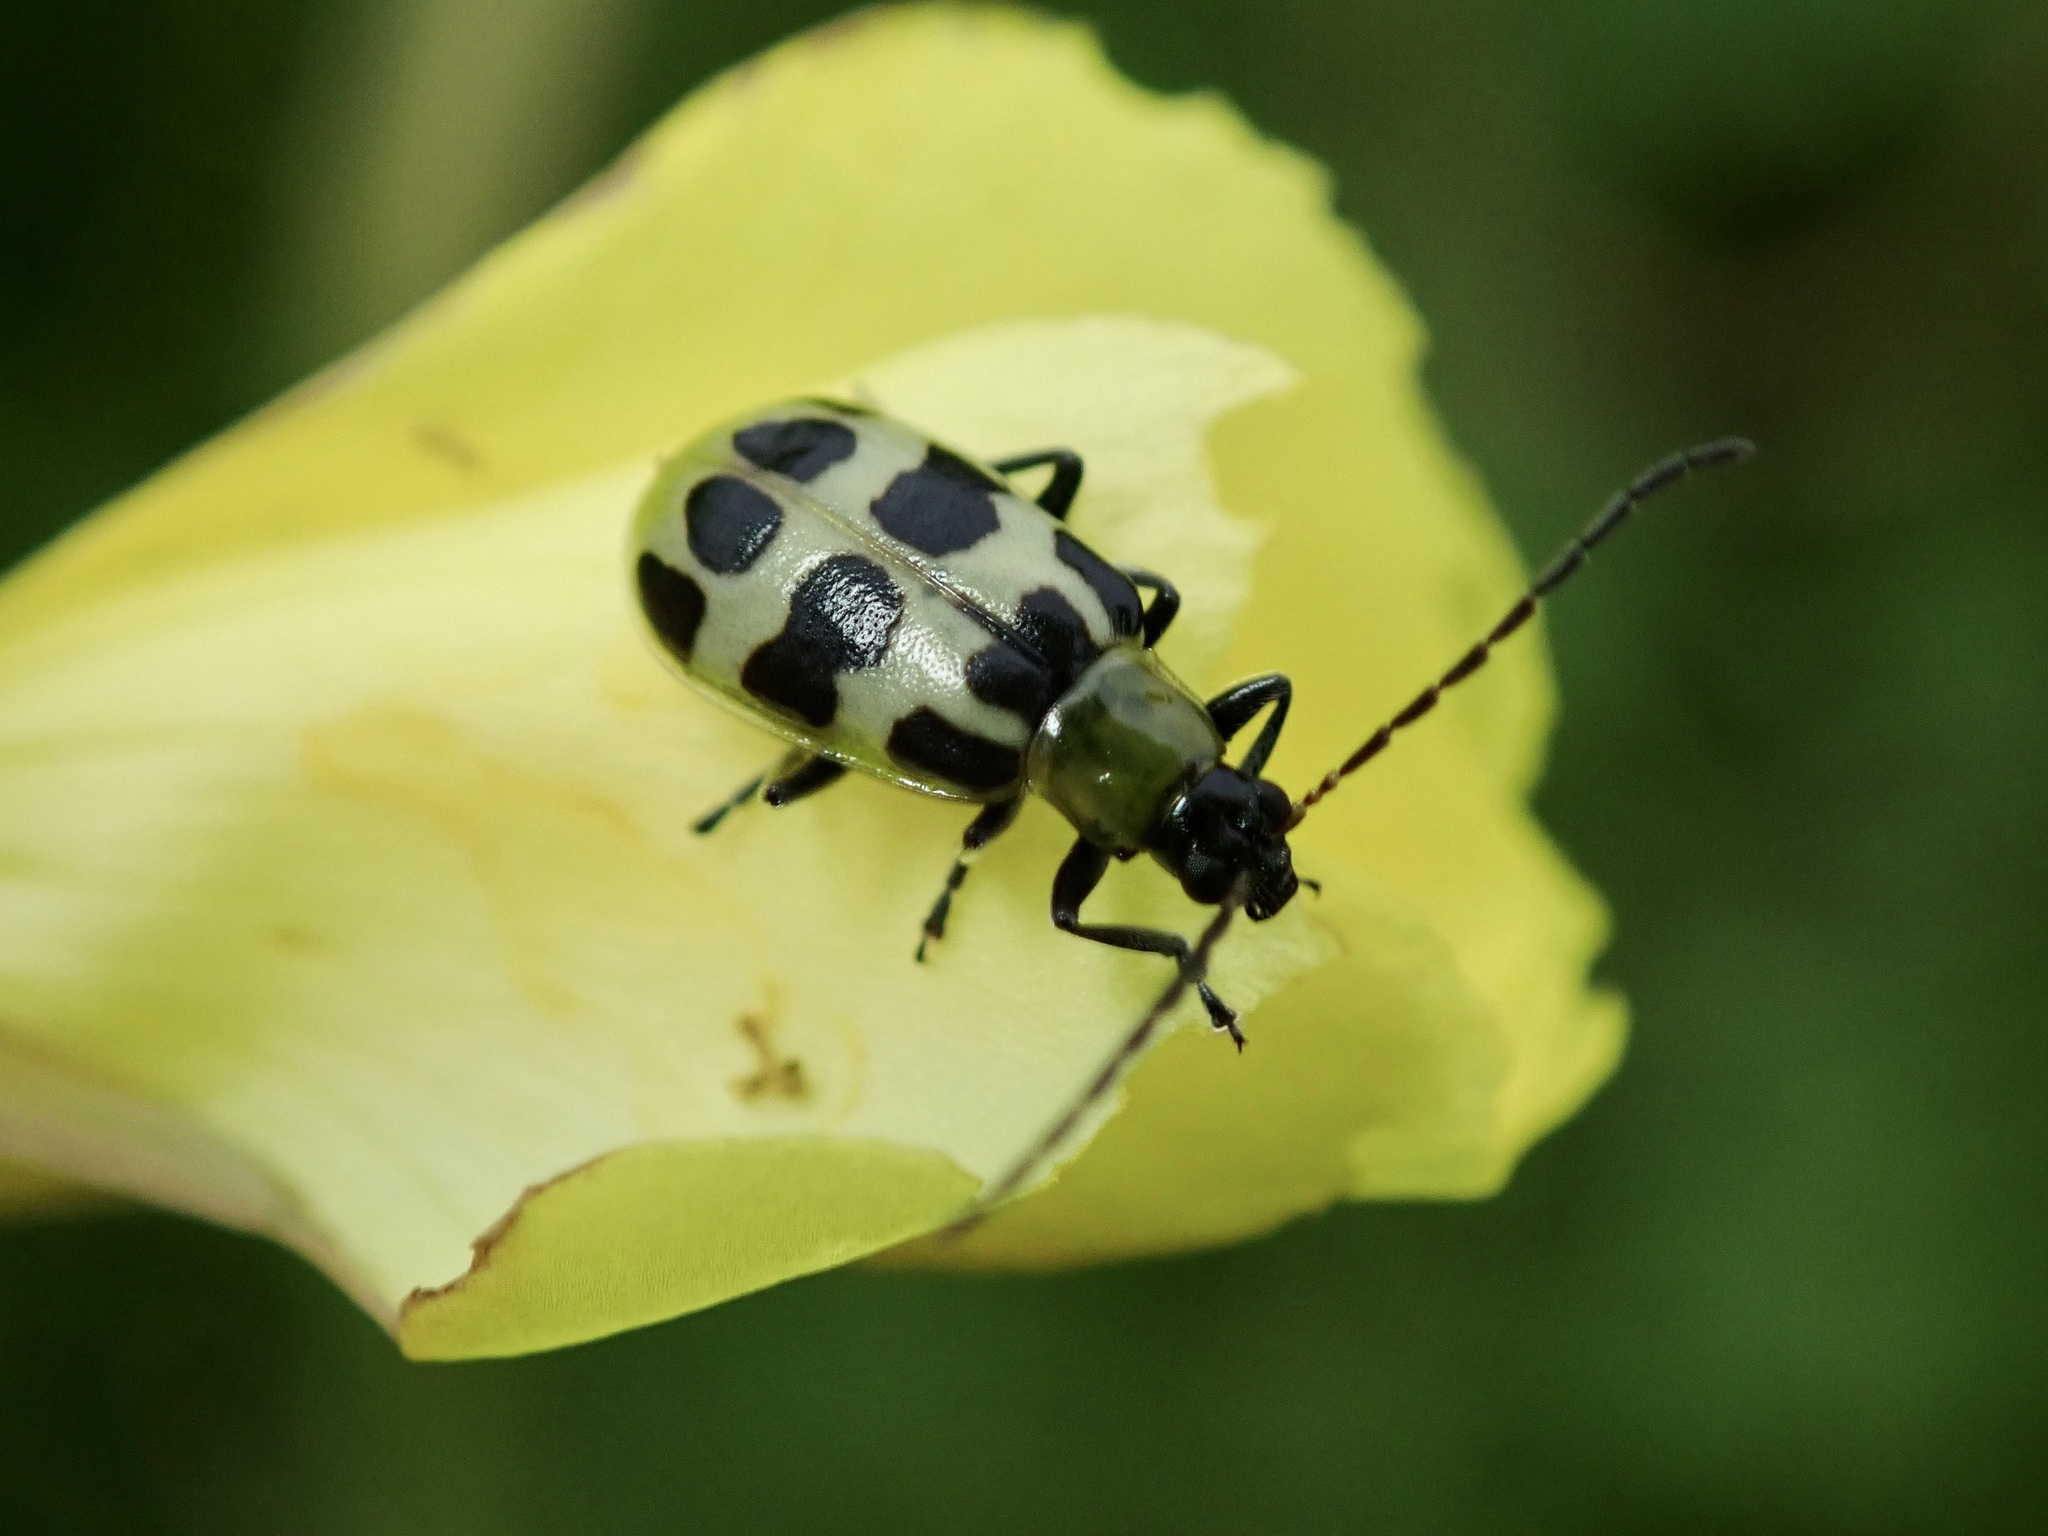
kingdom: Animalia
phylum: Arthropoda
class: Insecta
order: Coleoptera
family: Chrysomelidae
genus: Diabrotica
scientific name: Diabrotica undecimpunctata
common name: Spotted cucumber beetle
